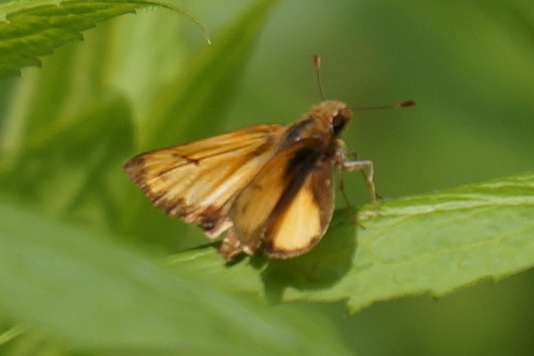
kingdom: Animalia
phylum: Arthropoda
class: Insecta
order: Lepidoptera
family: Hesperiidae
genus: Lon
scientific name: Lon zabulon
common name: Zabulon skipper
